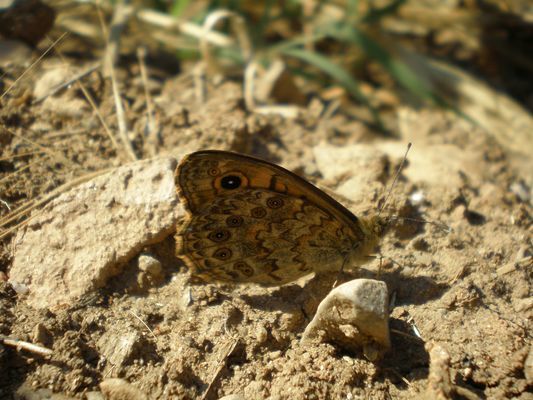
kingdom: Animalia
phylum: Arthropoda
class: Insecta
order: Lepidoptera
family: Nymphalidae
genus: Pararge
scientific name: Pararge Lasiommata megera
